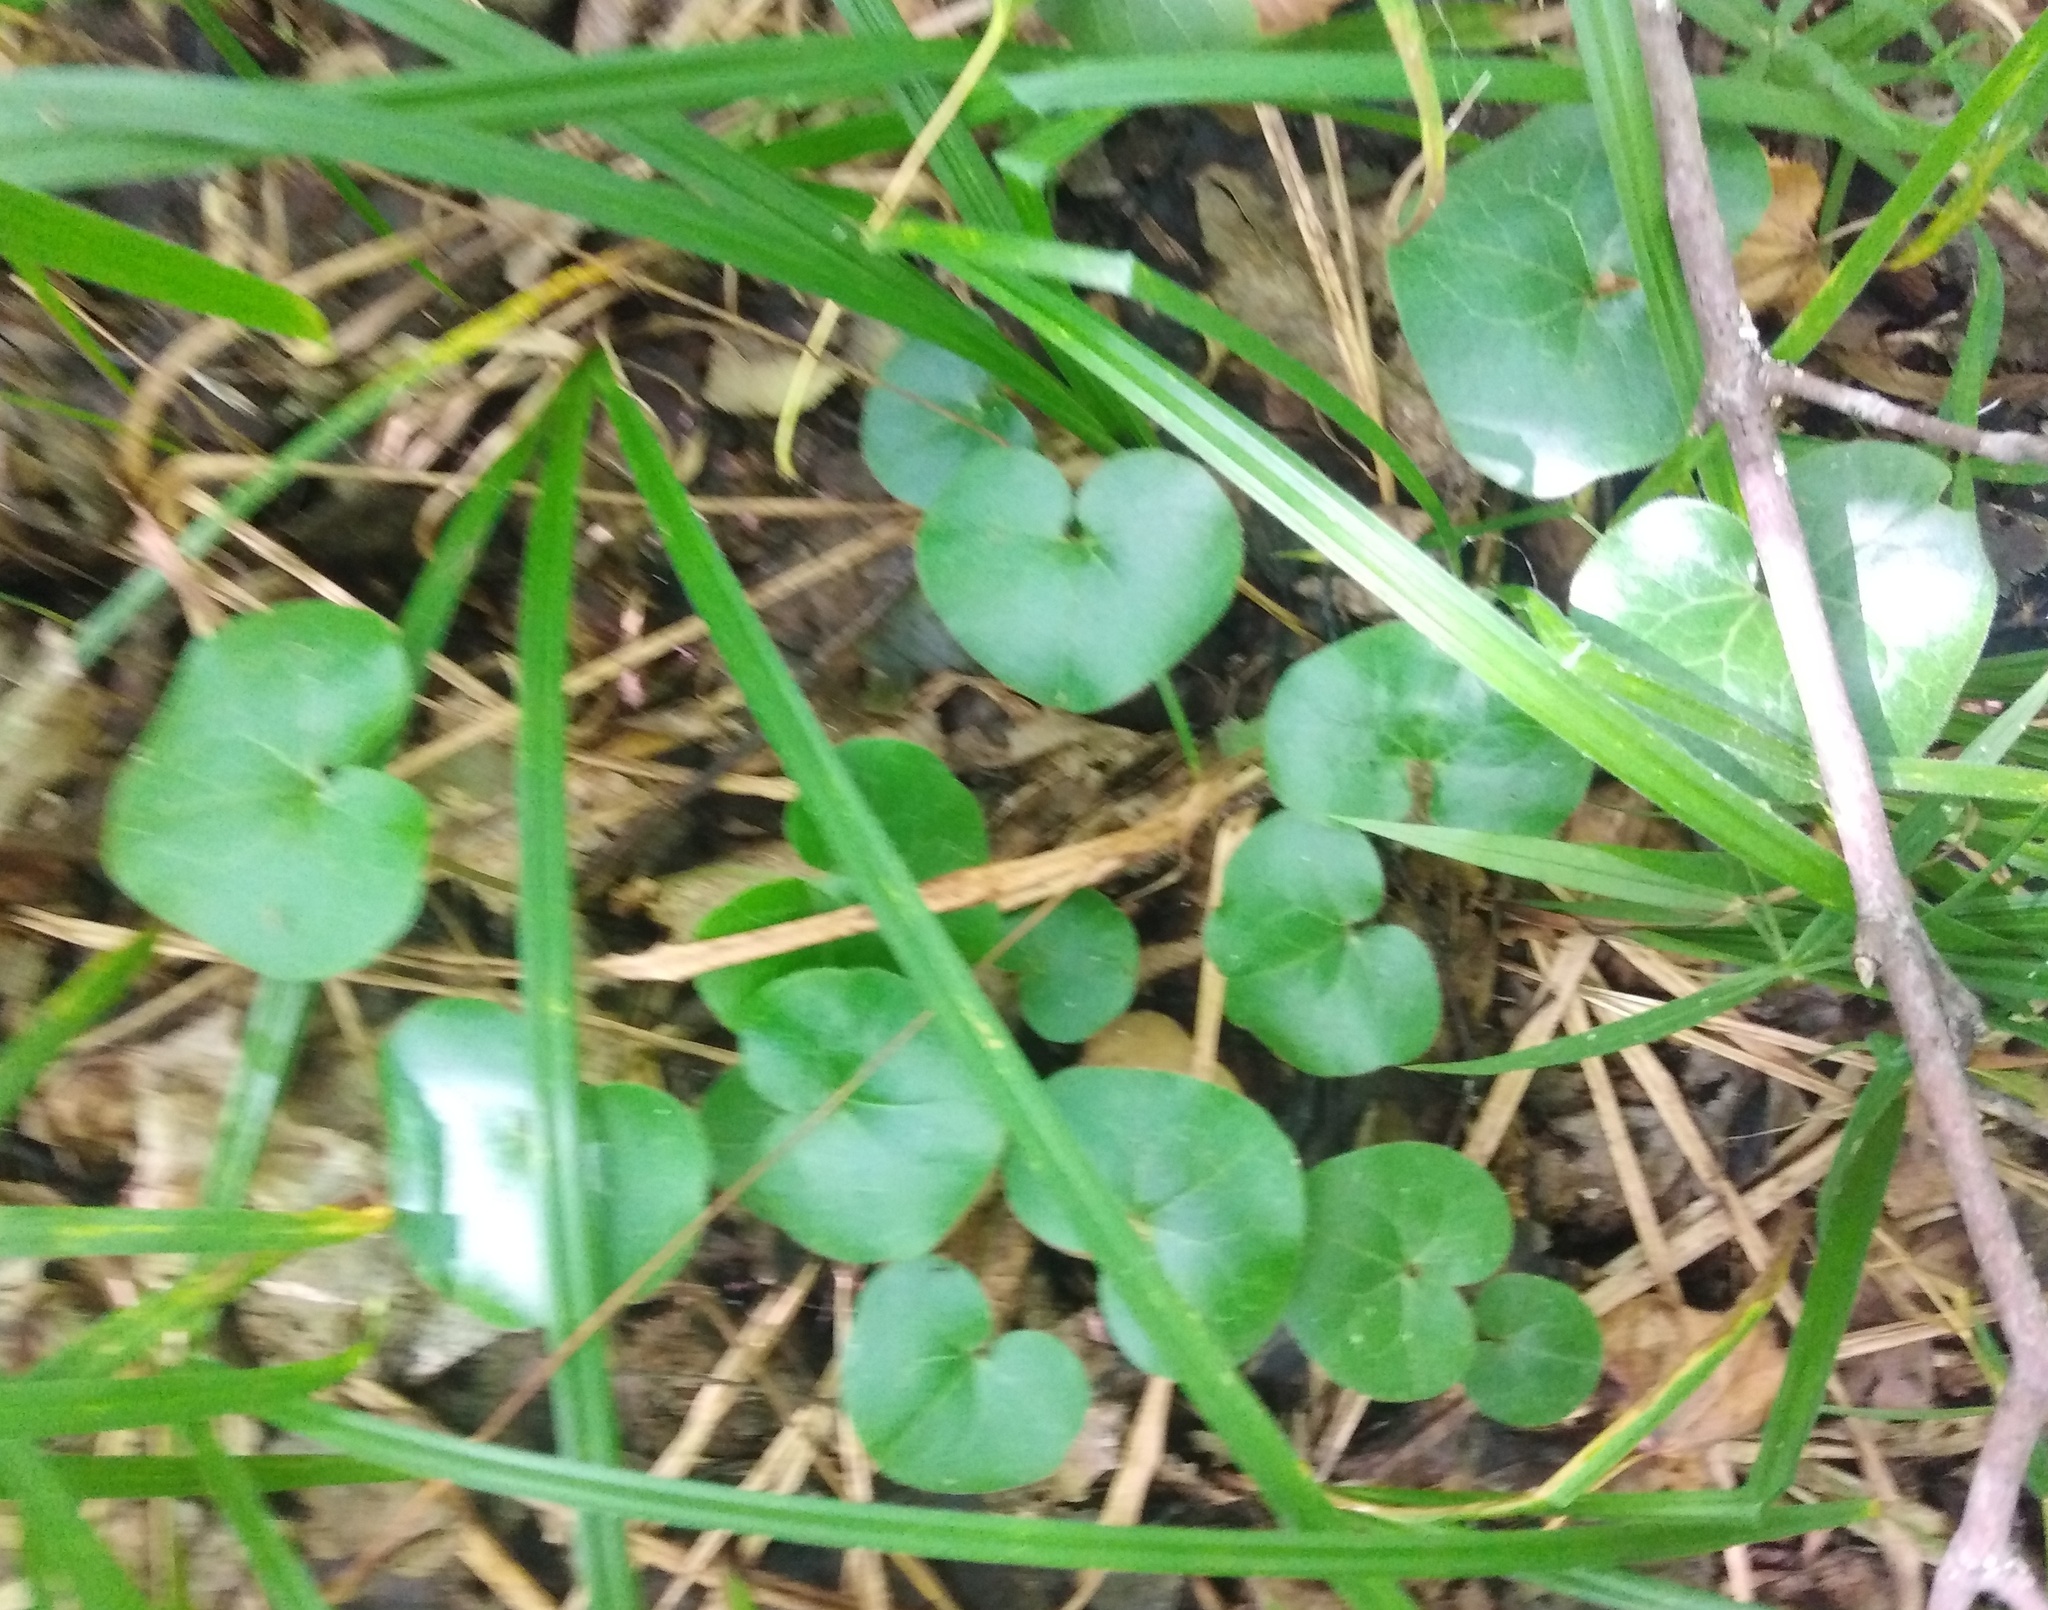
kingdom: Plantae
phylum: Tracheophyta
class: Magnoliopsida
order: Piperales
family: Aristolochiaceae
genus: Asarum
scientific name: Asarum europaeum
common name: Asarabacca
